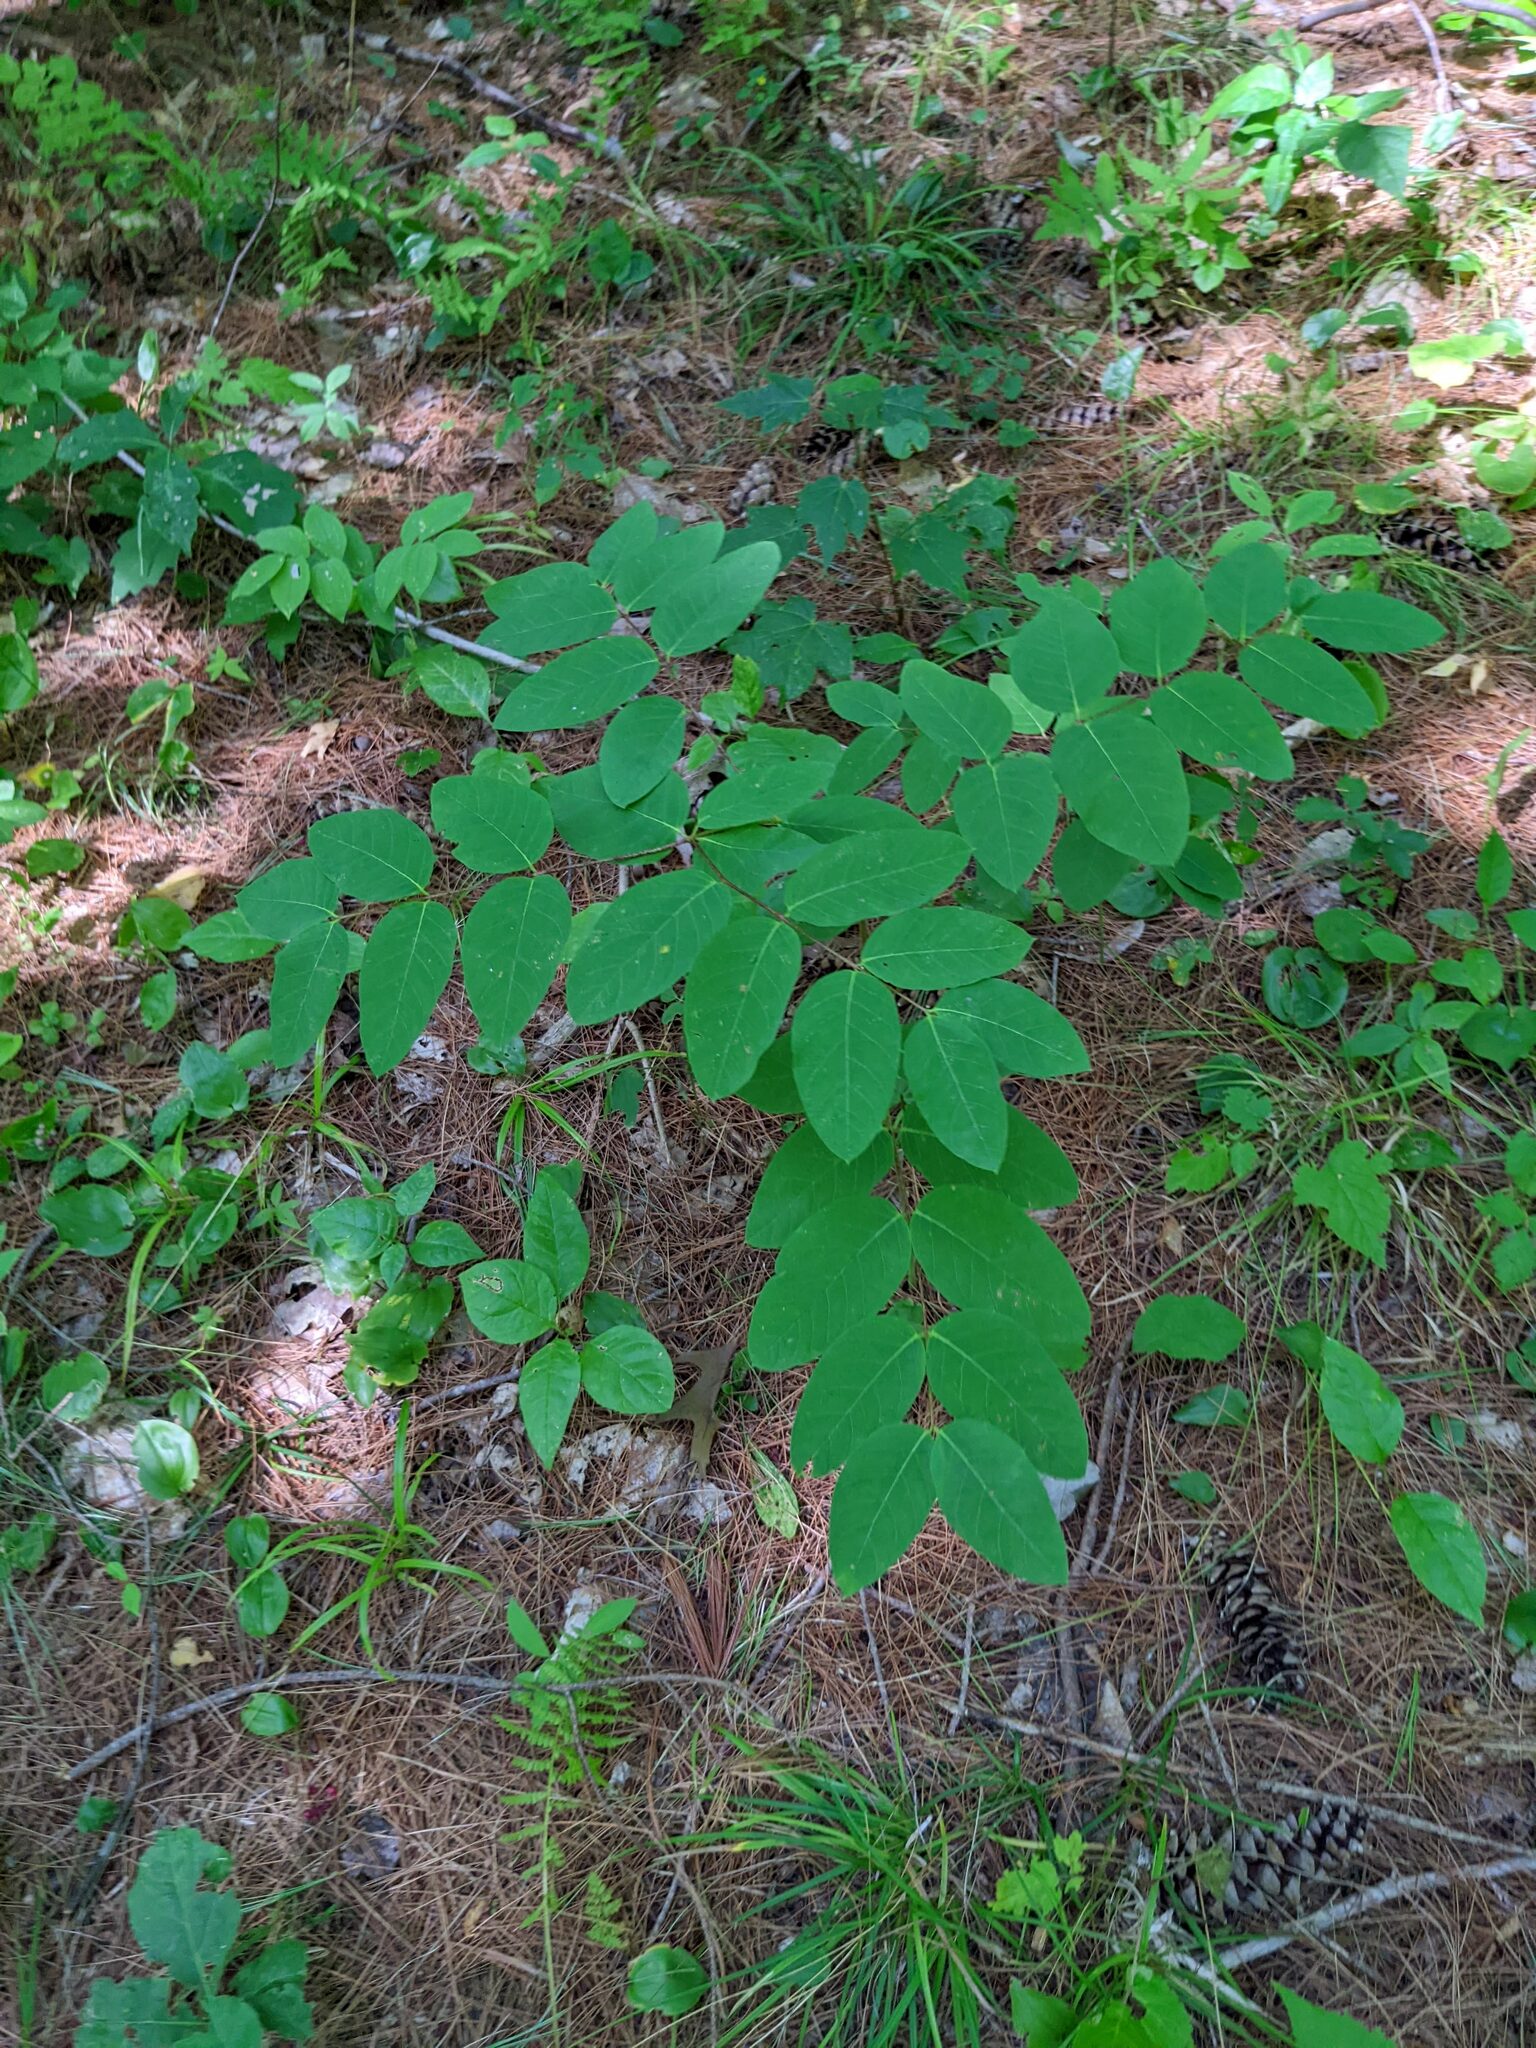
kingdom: Plantae
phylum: Tracheophyta
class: Magnoliopsida
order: Gentianales
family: Apocynaceae
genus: Apocynum
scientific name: Apocynum androsaemifolium
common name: Spreading dogbane
